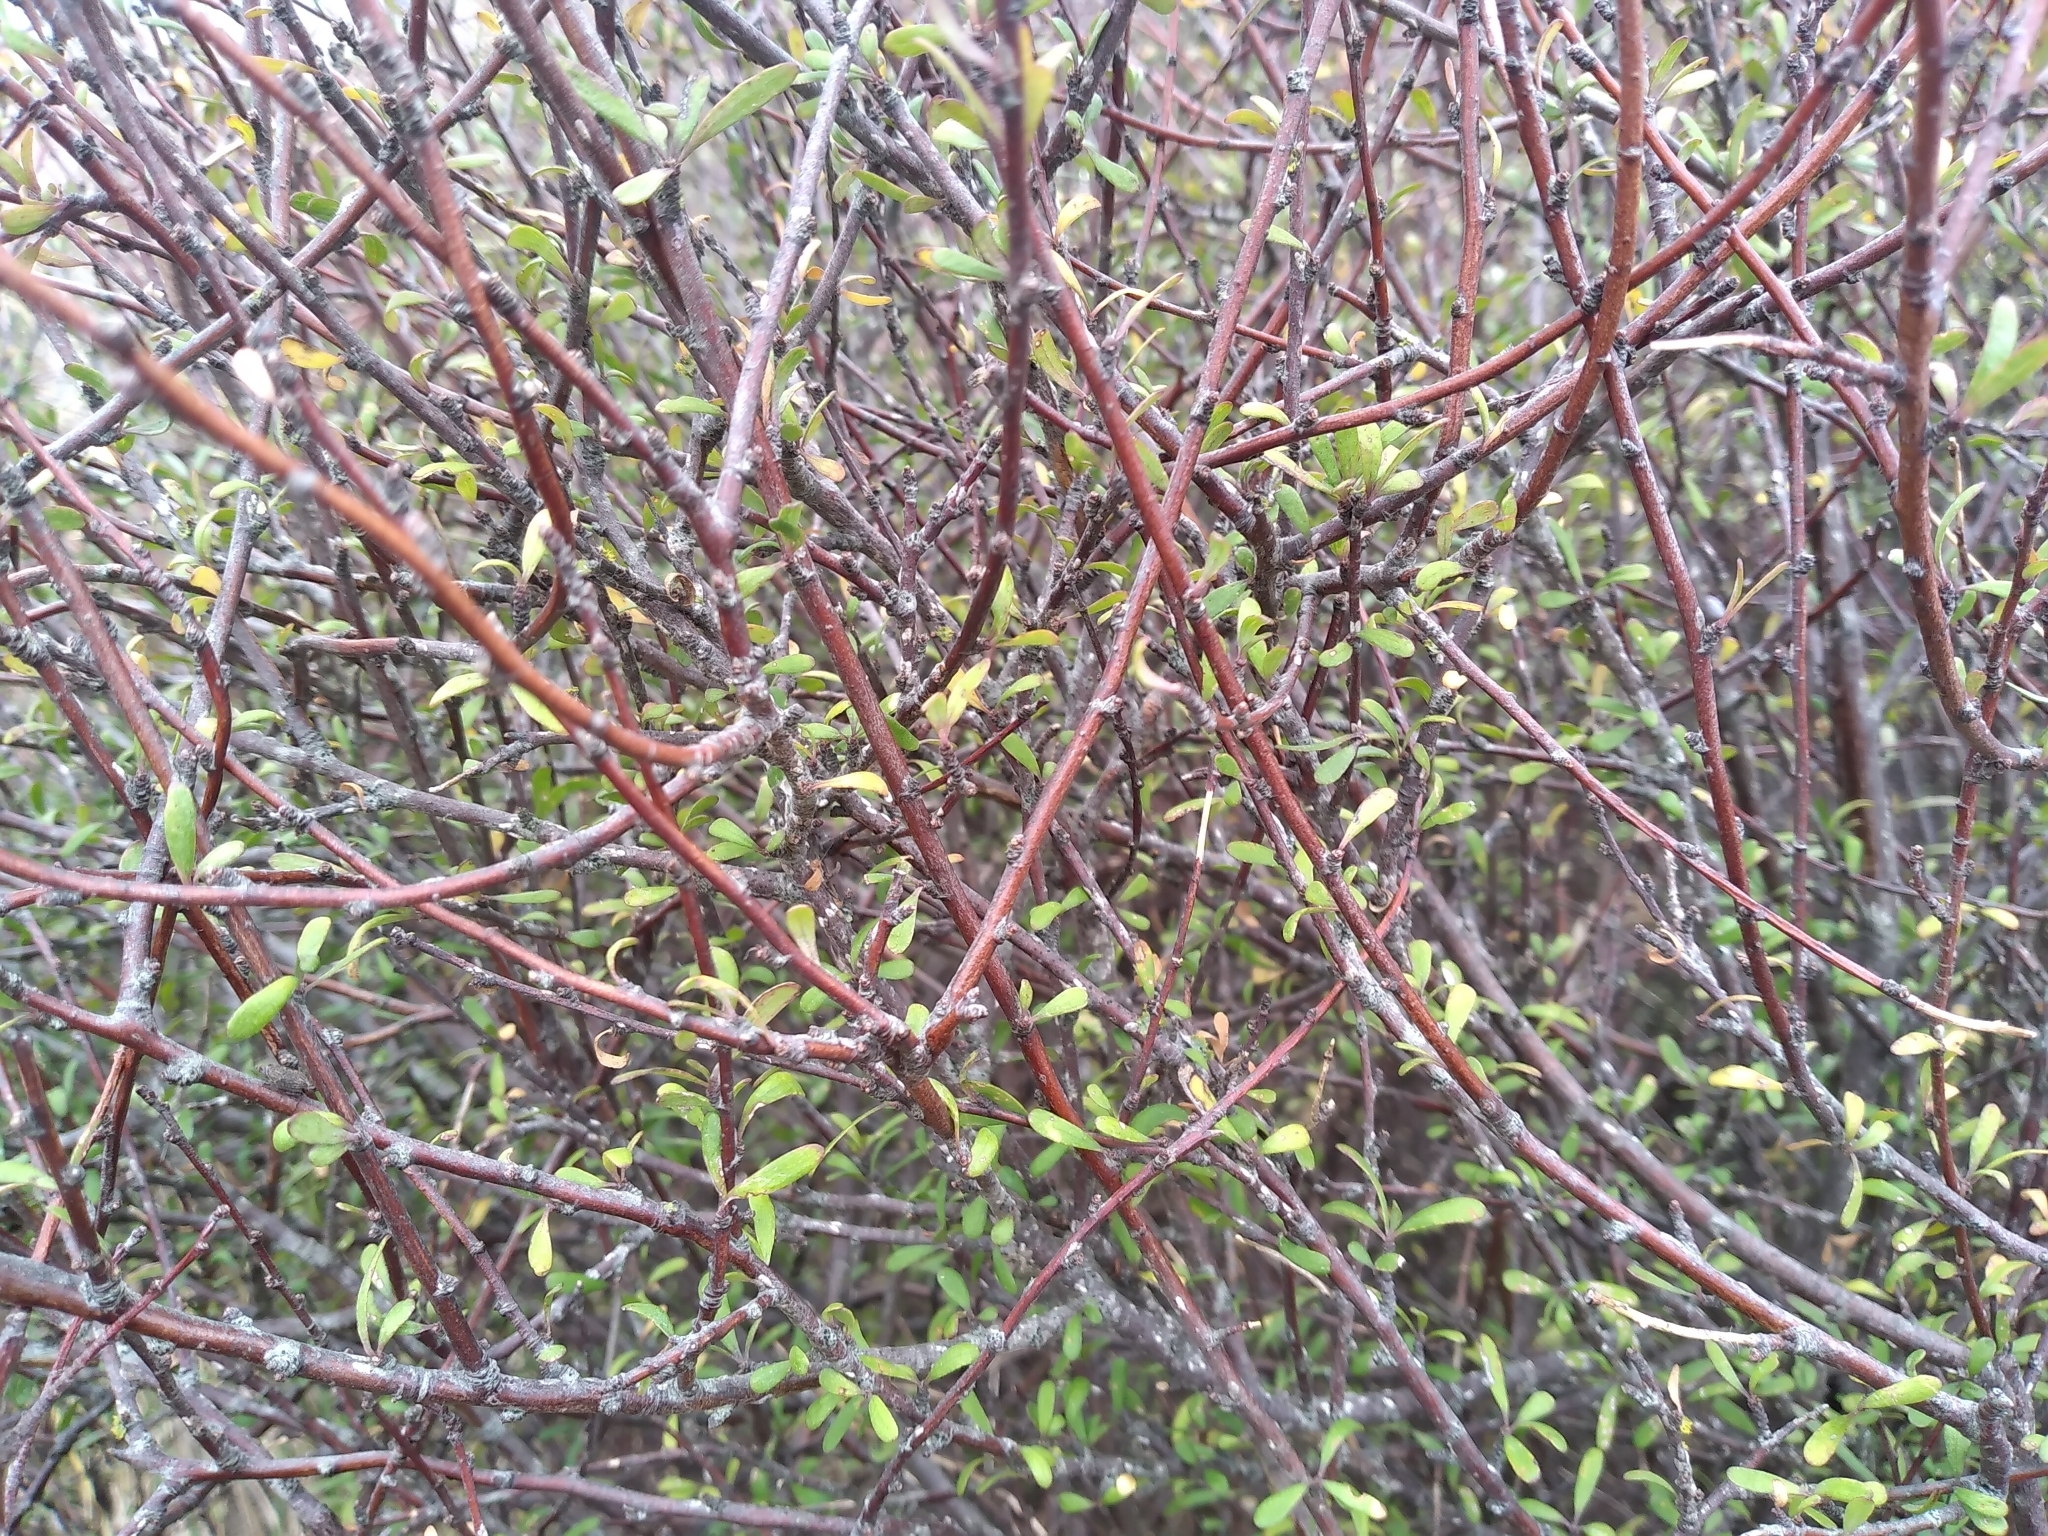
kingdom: Plantae
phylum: Tracheophyta
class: Magnoliopsida
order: Malvales
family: Malvaceae
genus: Plagianthus
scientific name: Plagianthus divaricatus
